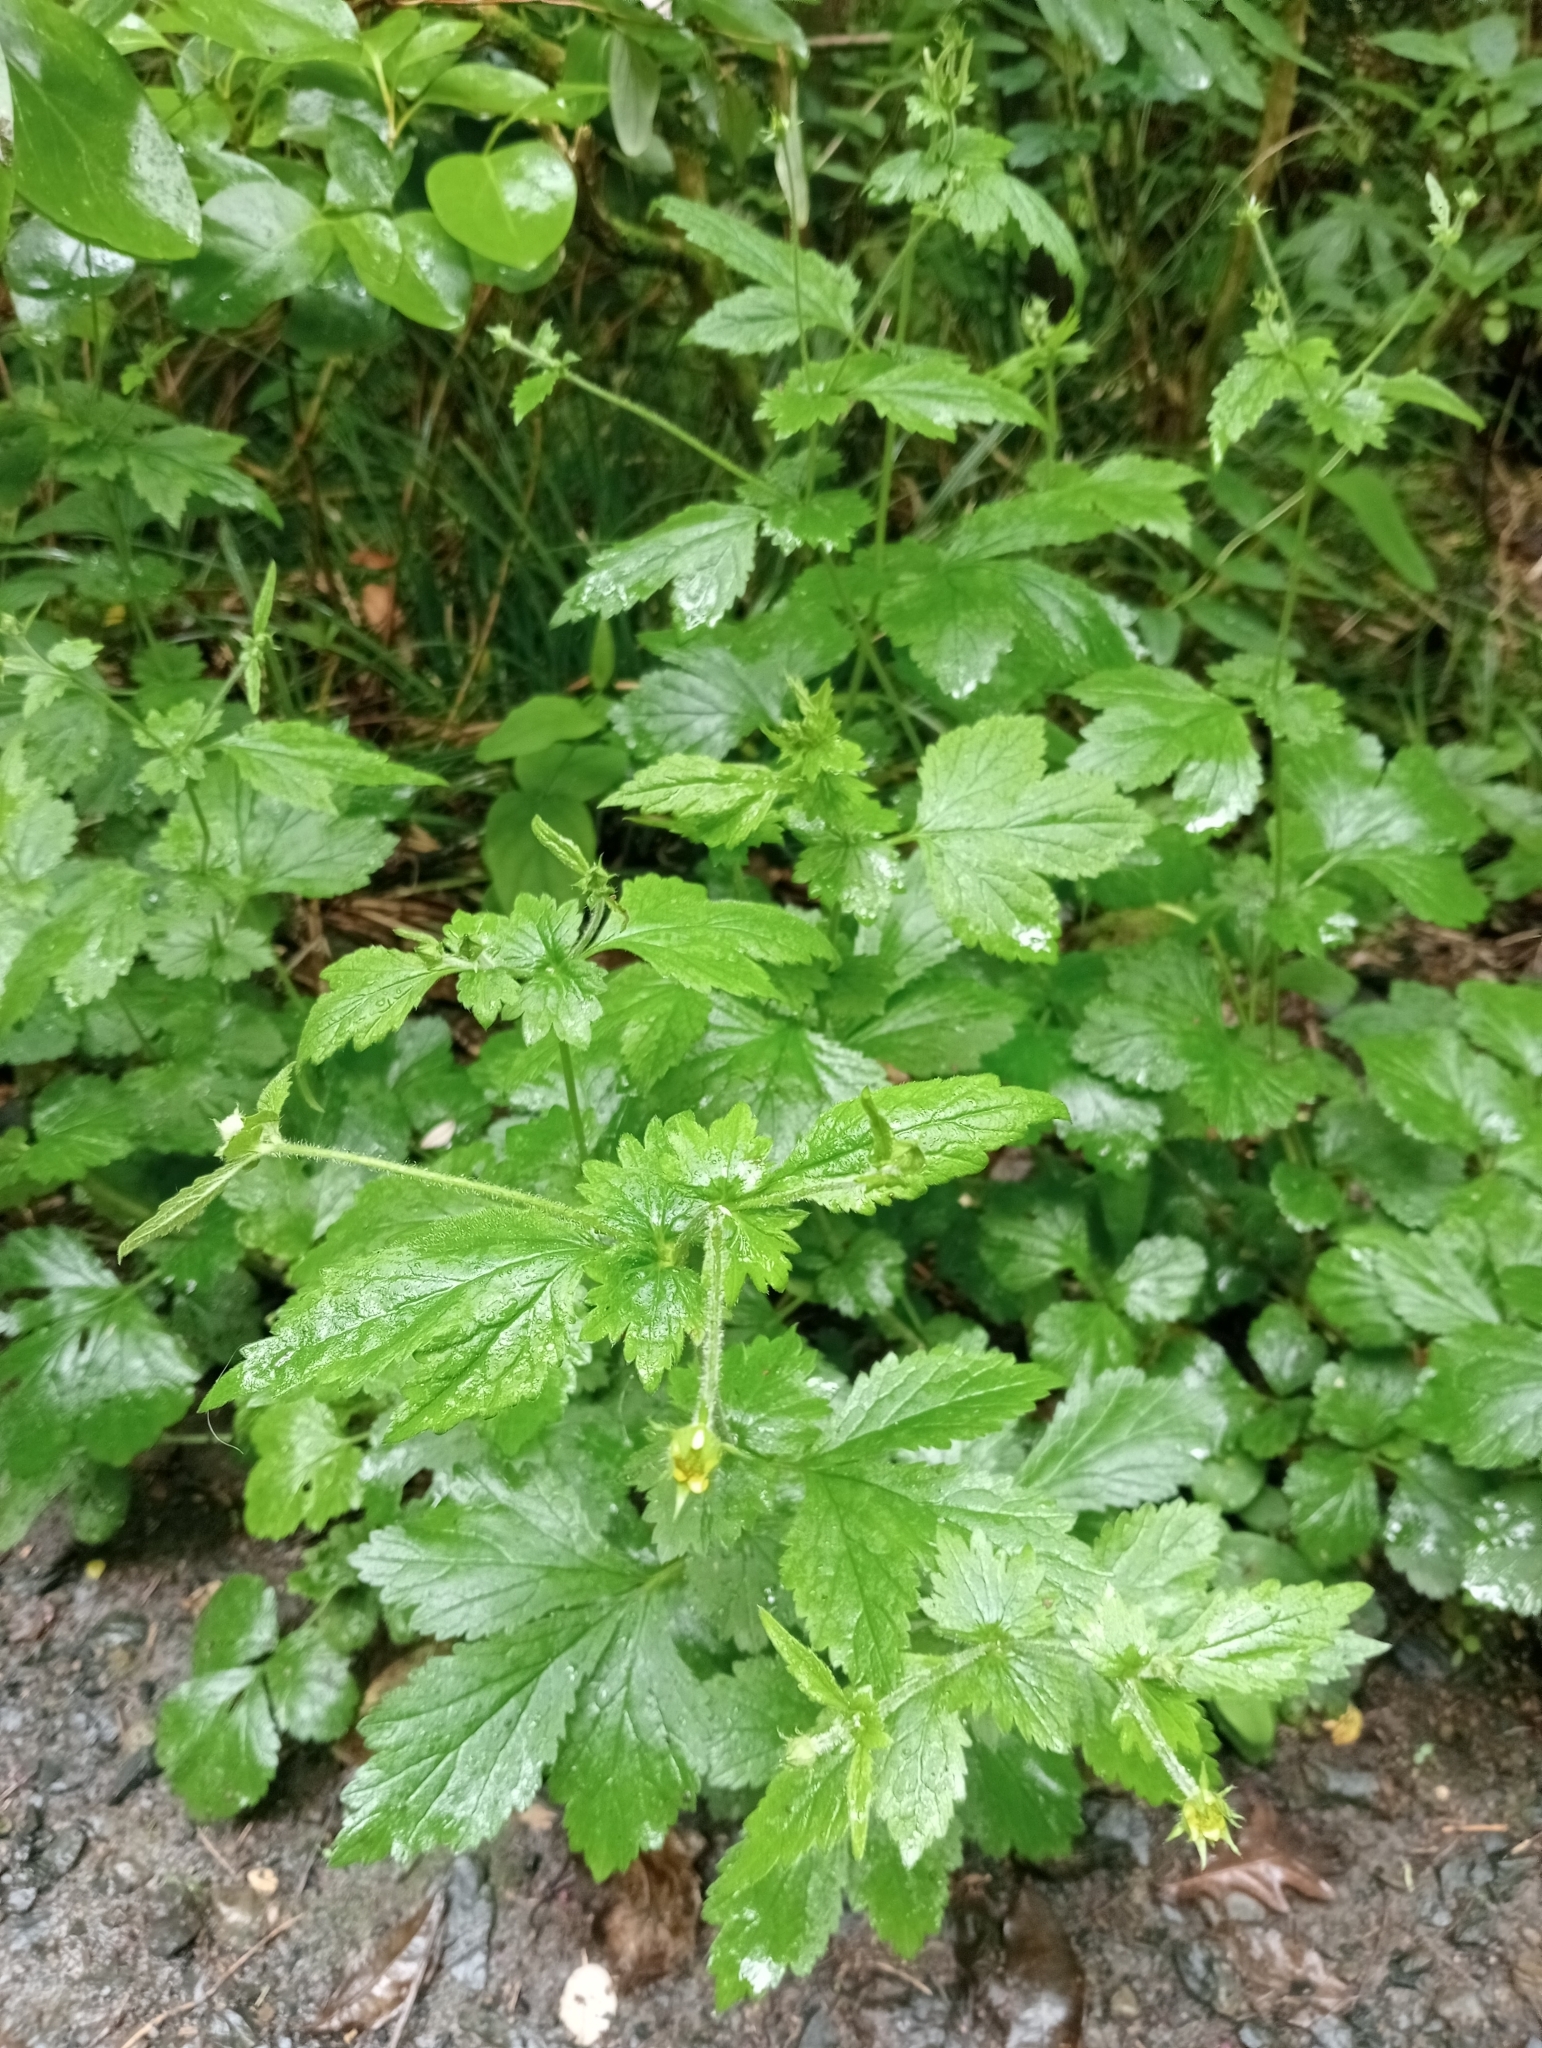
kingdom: Plantae
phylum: Tracheophyta
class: Magnoliopsida
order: Rosales
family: Rosaceae
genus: Geum
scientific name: Geum urbanum
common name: Wood avens
